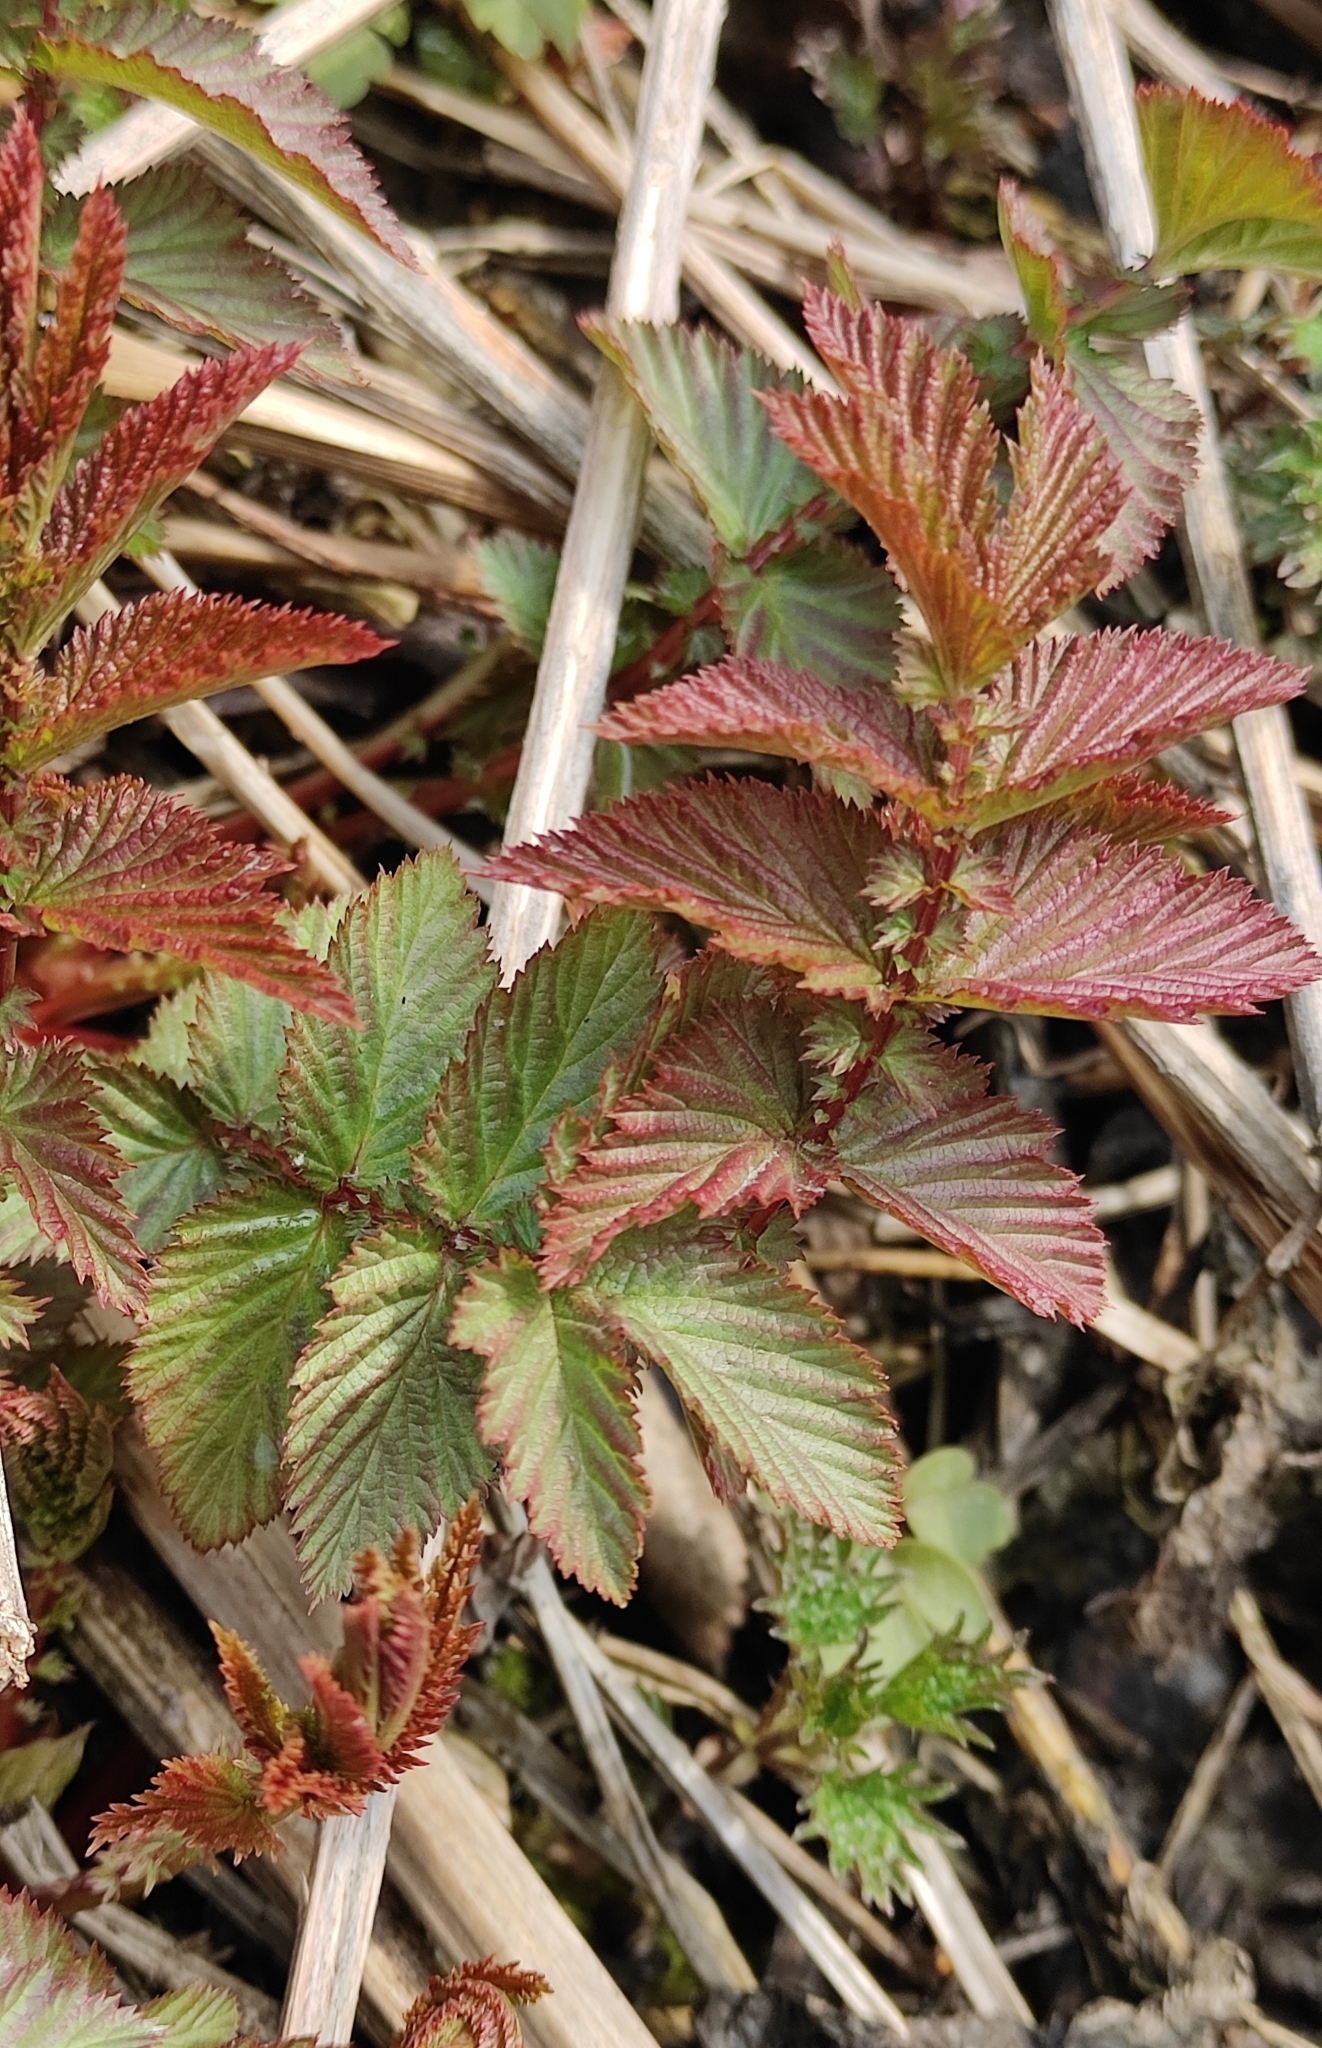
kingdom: Plantae
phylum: Tracheophyta
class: Magnoliopsida
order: Rosales
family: Rosaceae
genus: Filipendula
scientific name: Filipendula ulmaria
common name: Meadowsweet
